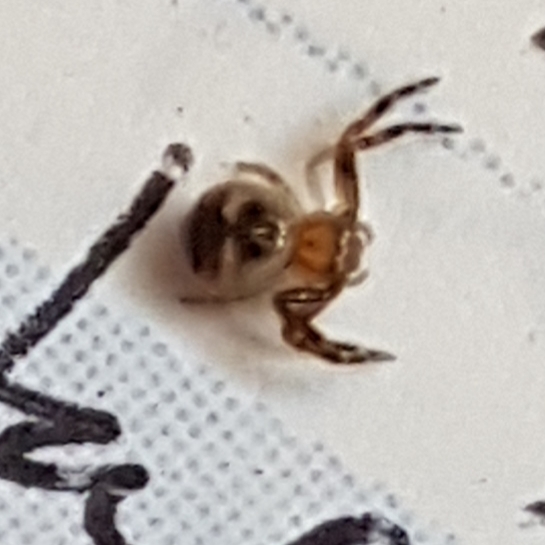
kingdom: Animalia
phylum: Arthropoda
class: Arachnida
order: Araneae
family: Thomisidae
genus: Synema
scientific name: Synema globosum
